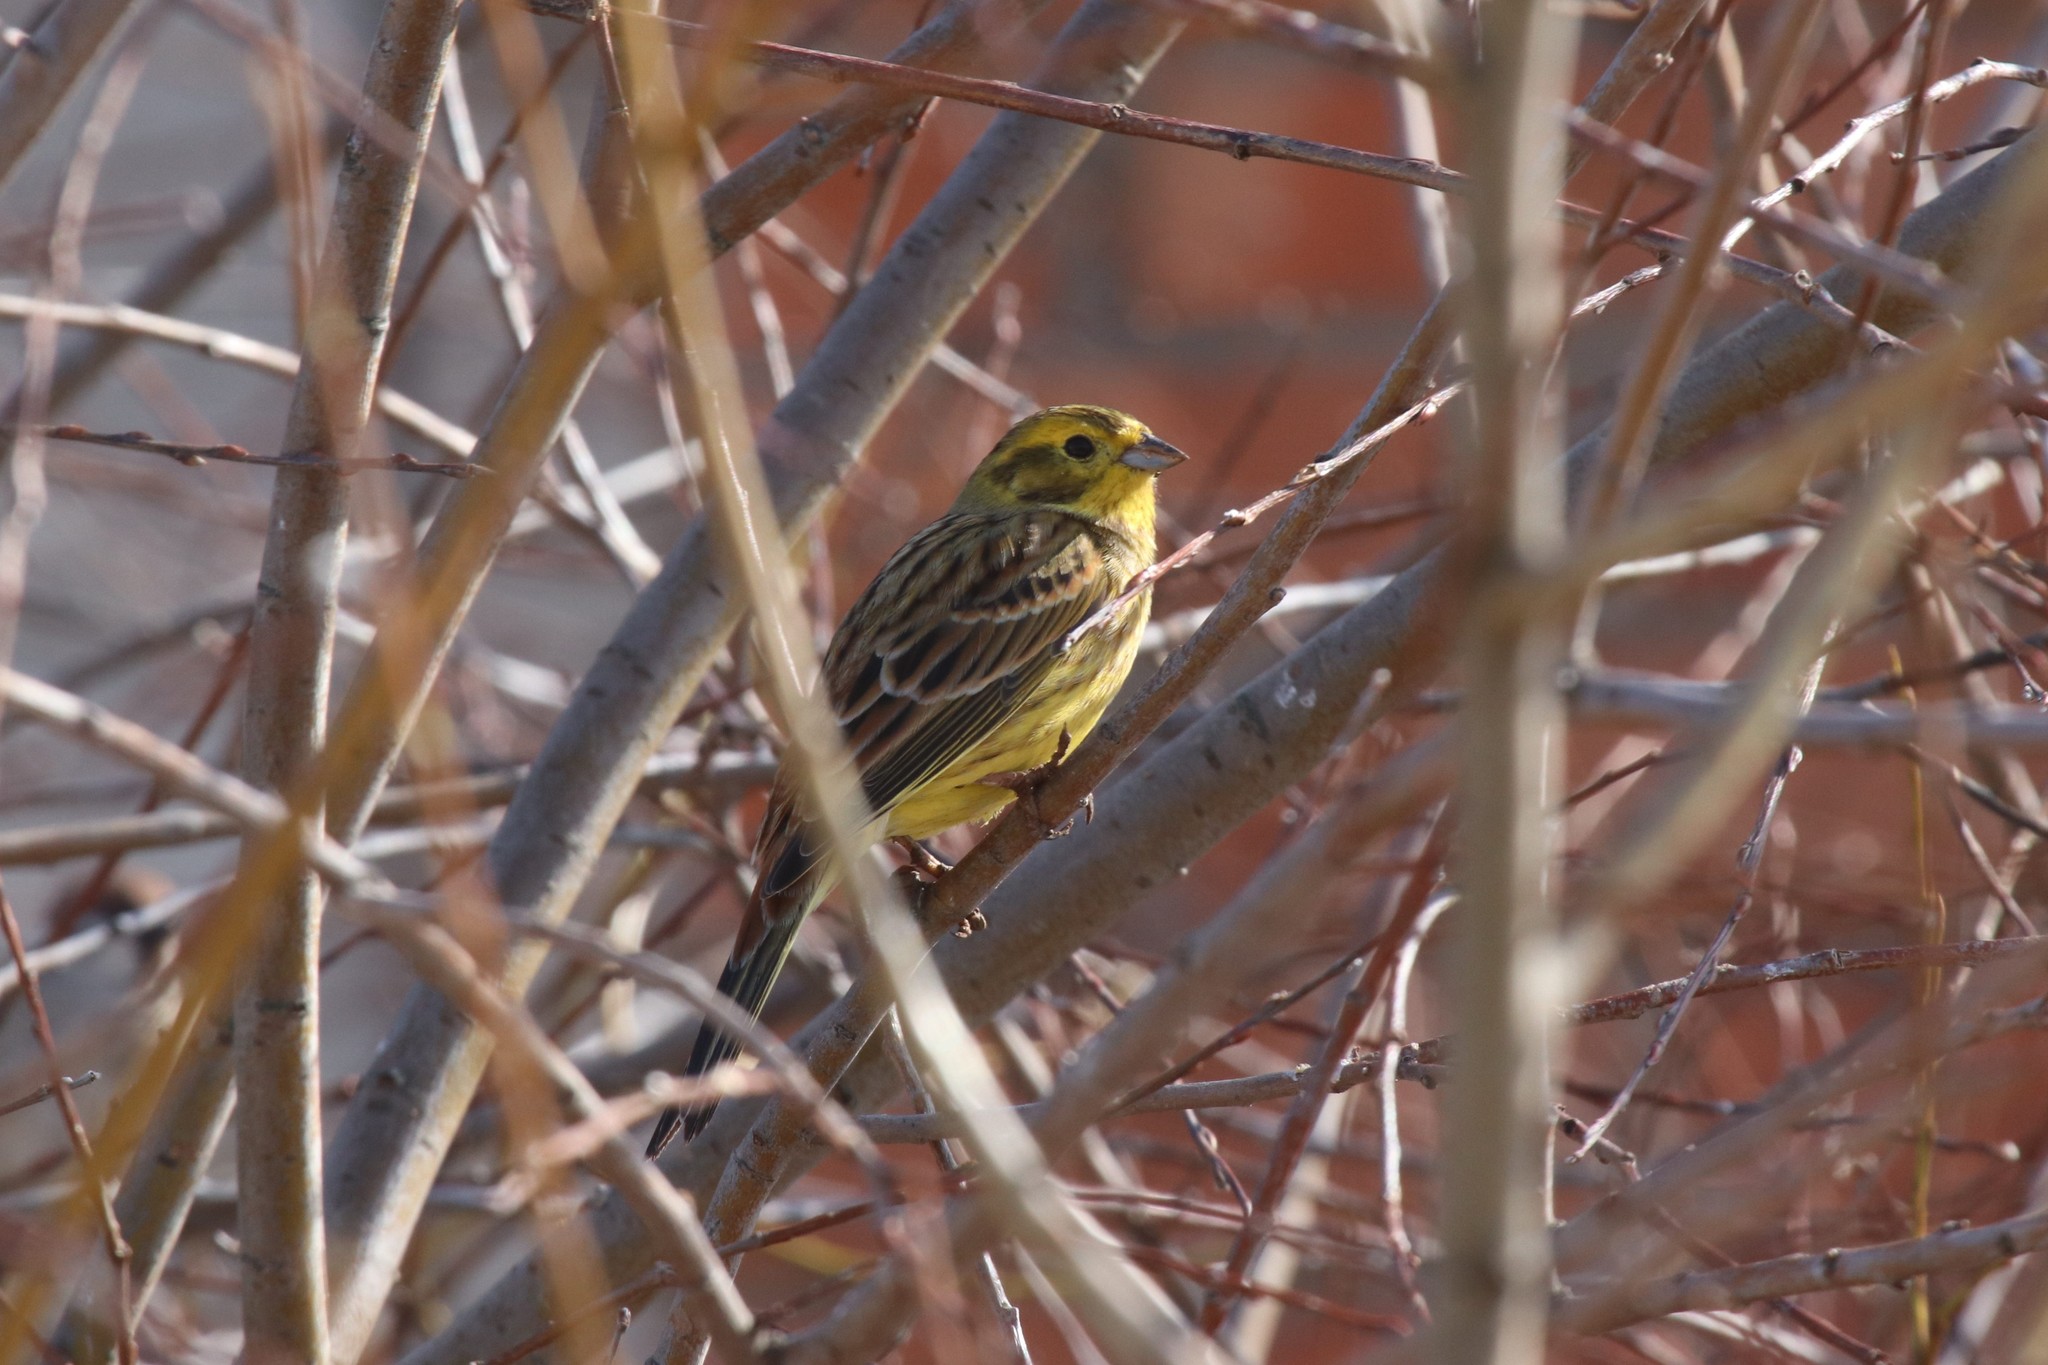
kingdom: Animalia
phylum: Chordata
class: Aves
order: Passeriformes
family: Emberizidae
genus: Emberiza
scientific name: Emberiza citrinella
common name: Yellowhammer
